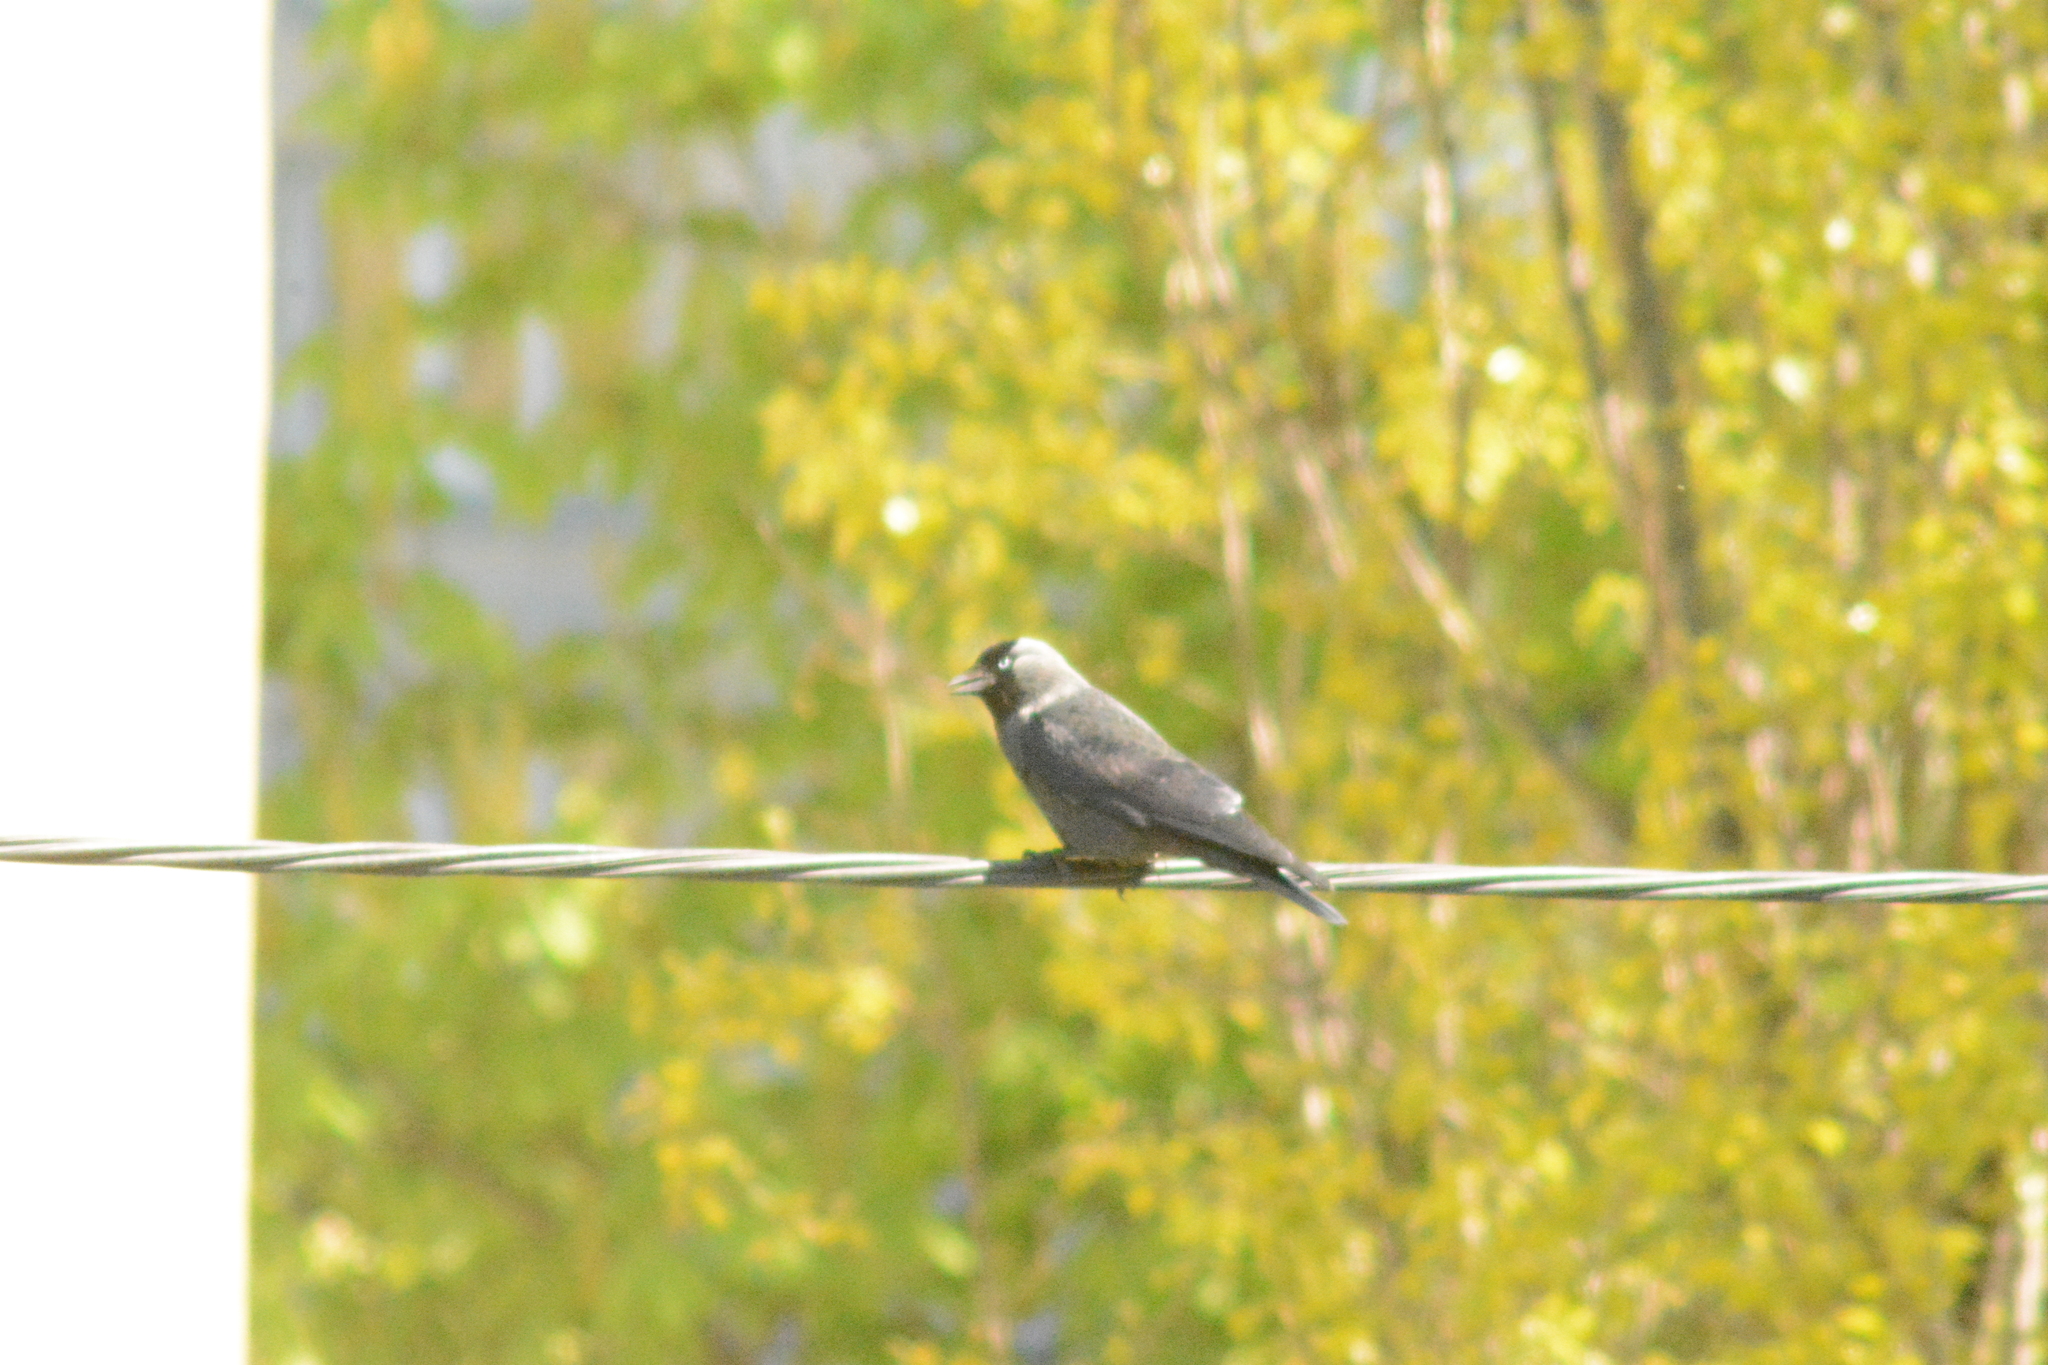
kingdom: Animalia
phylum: Chordata
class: Aves
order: Passeriformes
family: Corvidae
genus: Coloeus
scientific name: Coloeus monedula
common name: Western jackdaw
